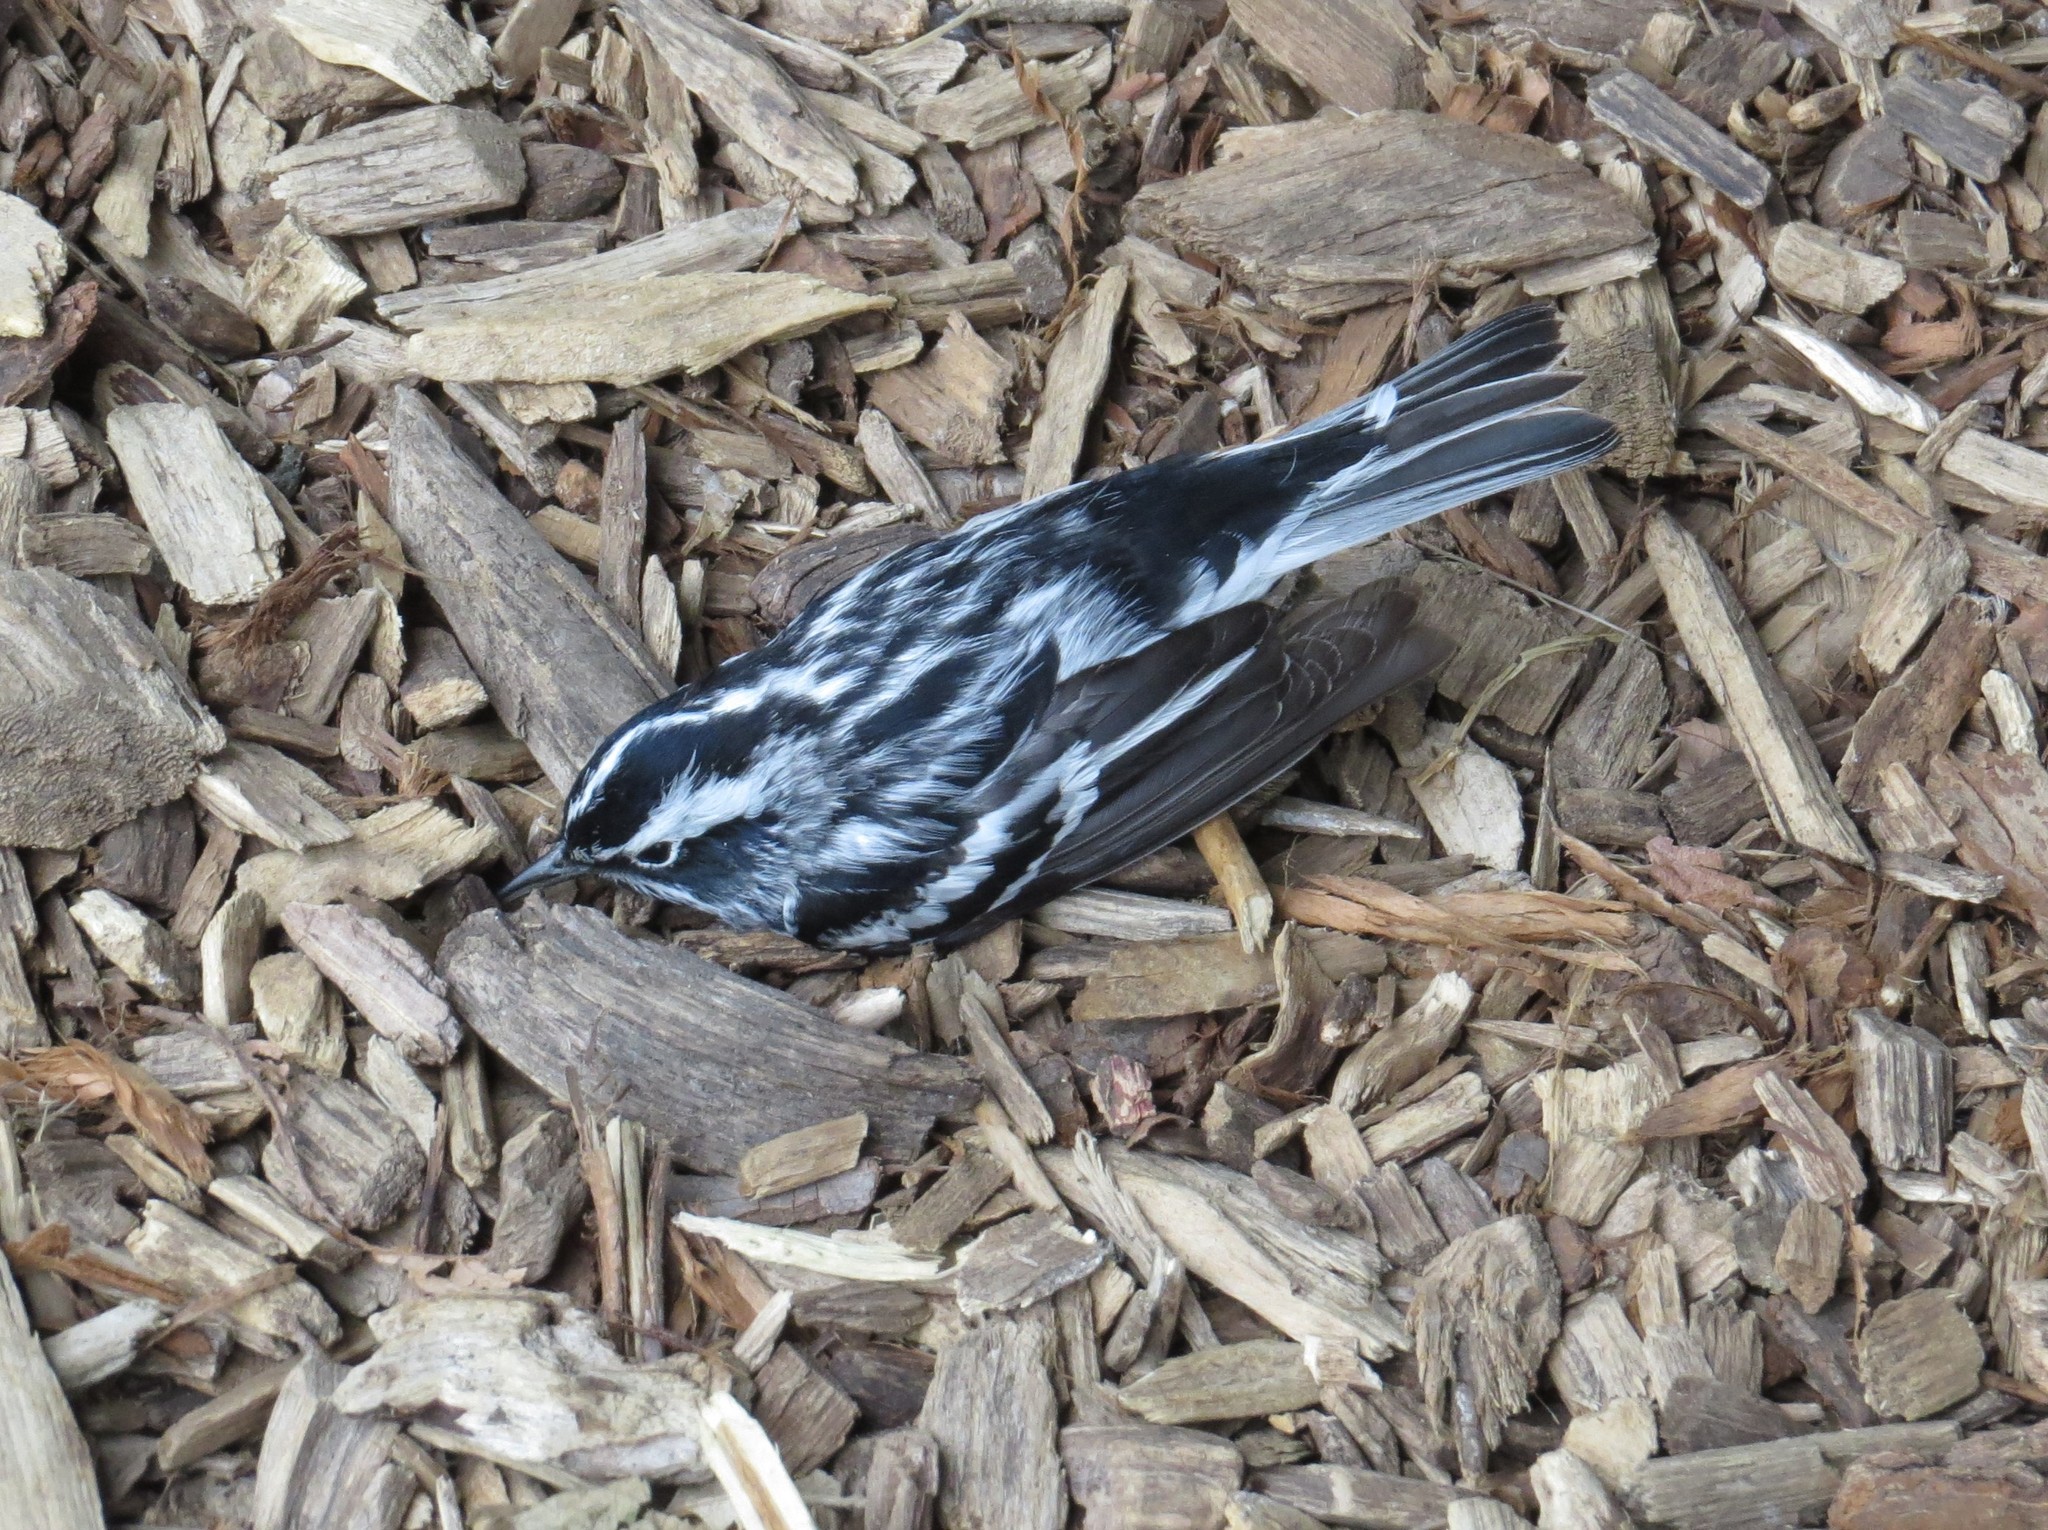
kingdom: Animalia
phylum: Chordata
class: Aves
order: Passeriformes
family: Parulidae
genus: Mniotilta
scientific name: Mniotilta varia
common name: Black-and-white warbler
